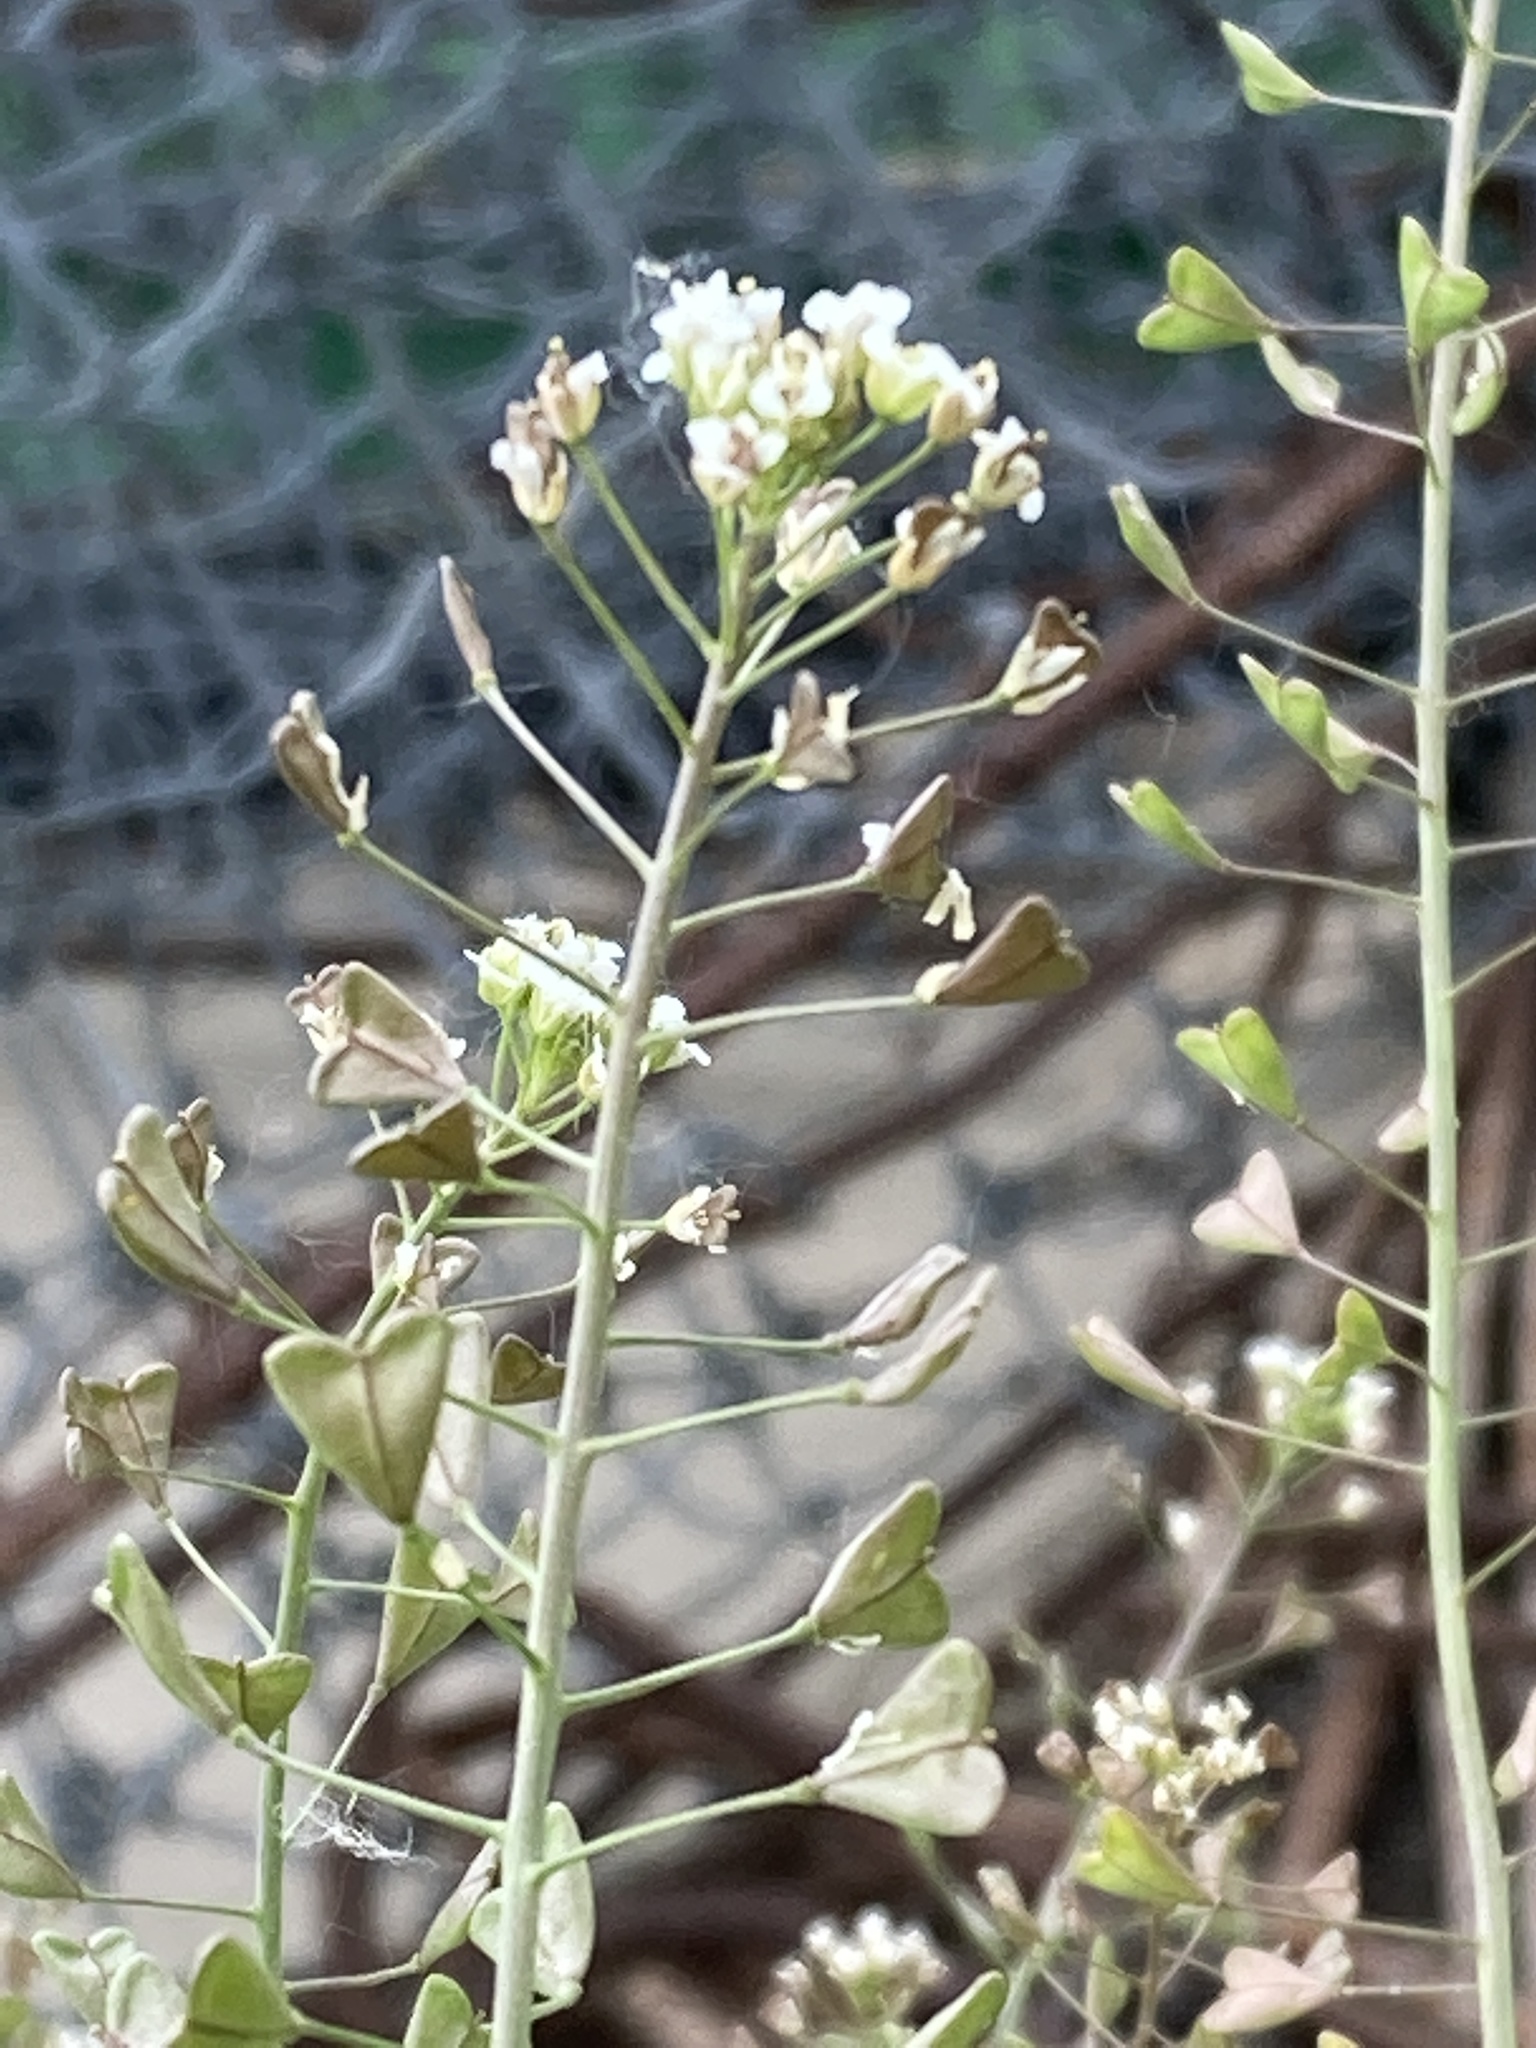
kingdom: Plantae
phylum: Tracheophyta
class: Magnoliopsida
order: Brassicales
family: Brassicaceae
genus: Capsella
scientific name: Capsella bursa-pastoris
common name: Shepherd's purse
